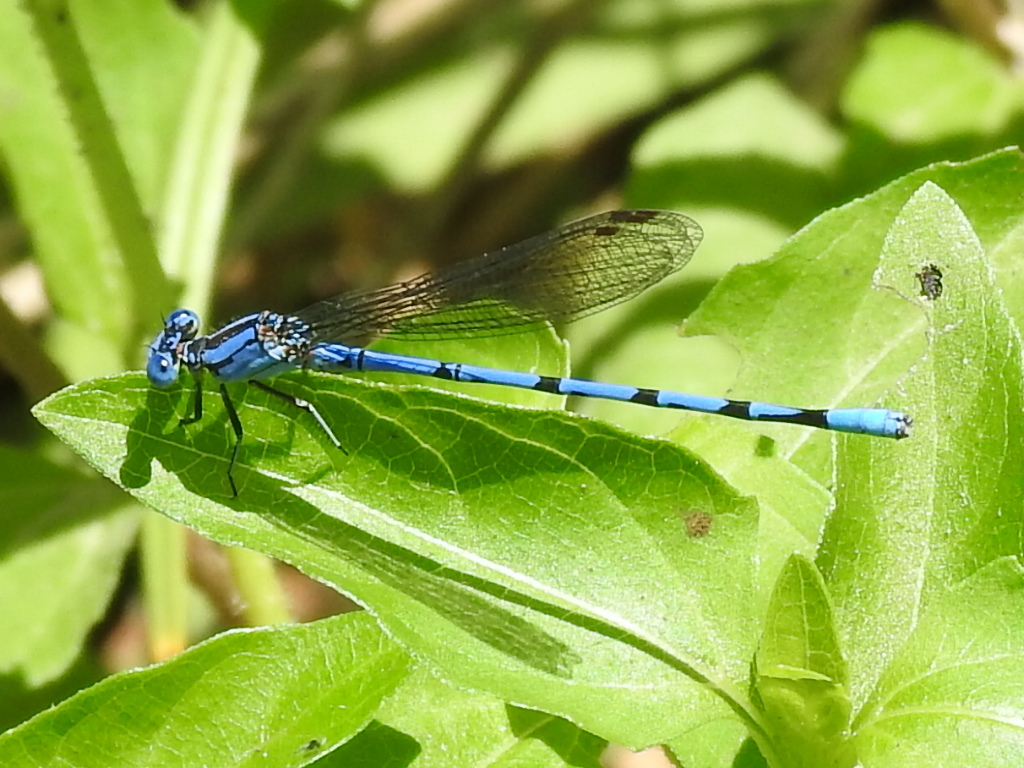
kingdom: Animalia
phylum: Arthropoda
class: Insecta
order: Odonata
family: Coenagrionidae
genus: Argia
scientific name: Argia funebris
